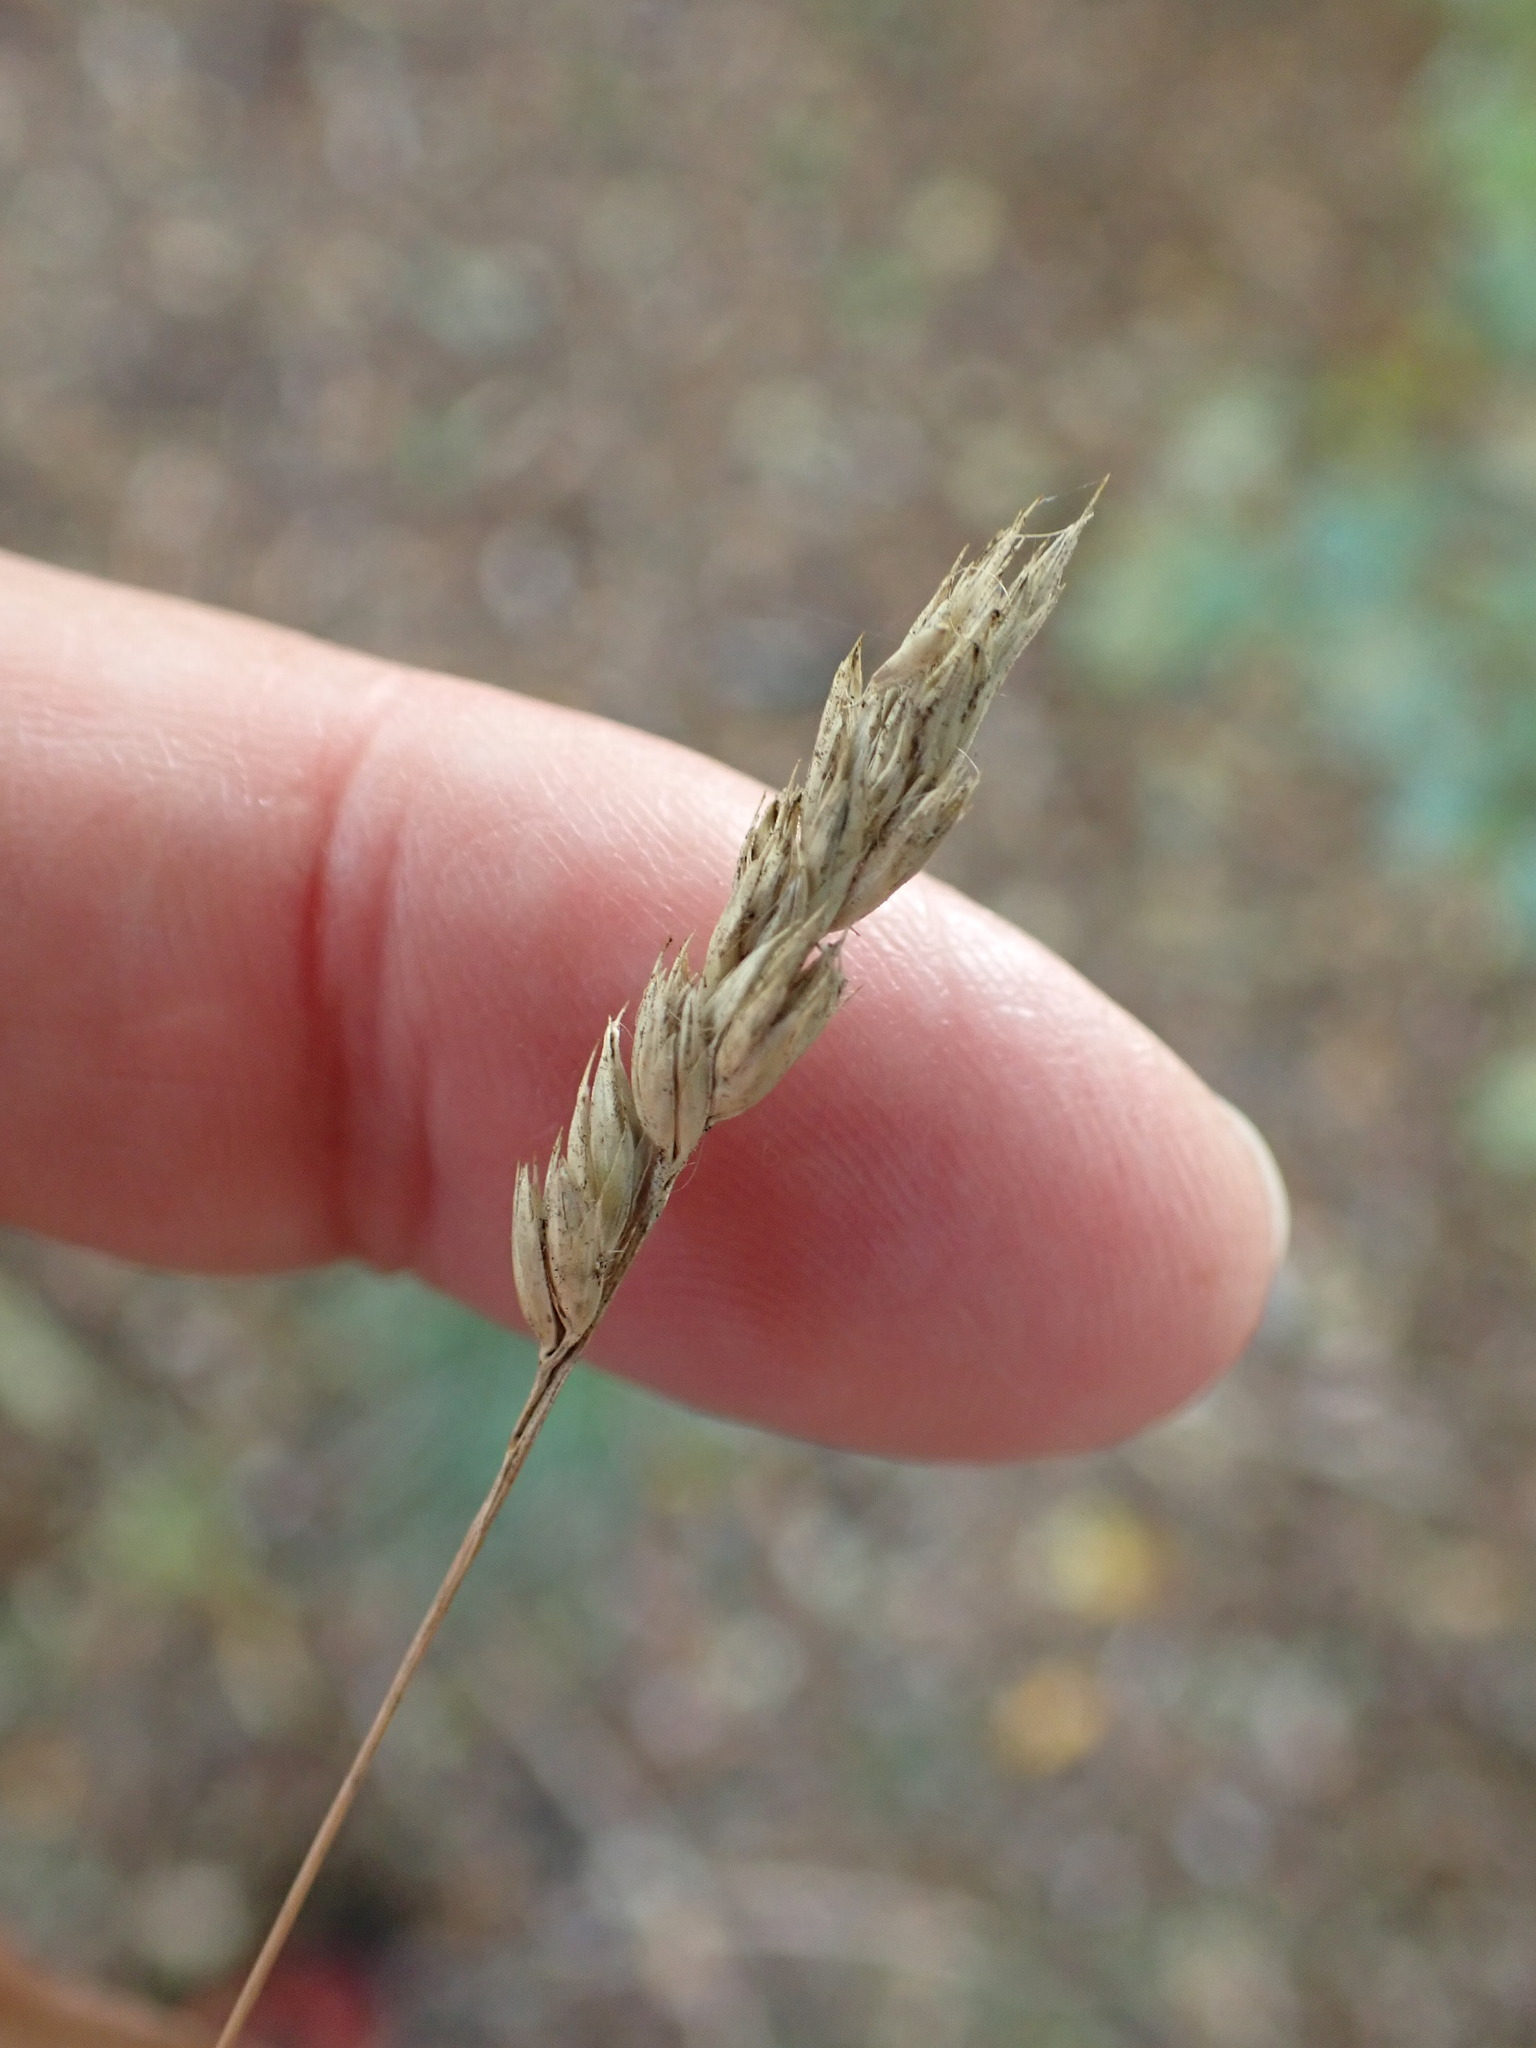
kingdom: Plantae
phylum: Tracheophyta
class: Liliopsida
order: Poales
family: Poaceae
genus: Dactylis
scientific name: Dactylis glomerata
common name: Orchardgrass
